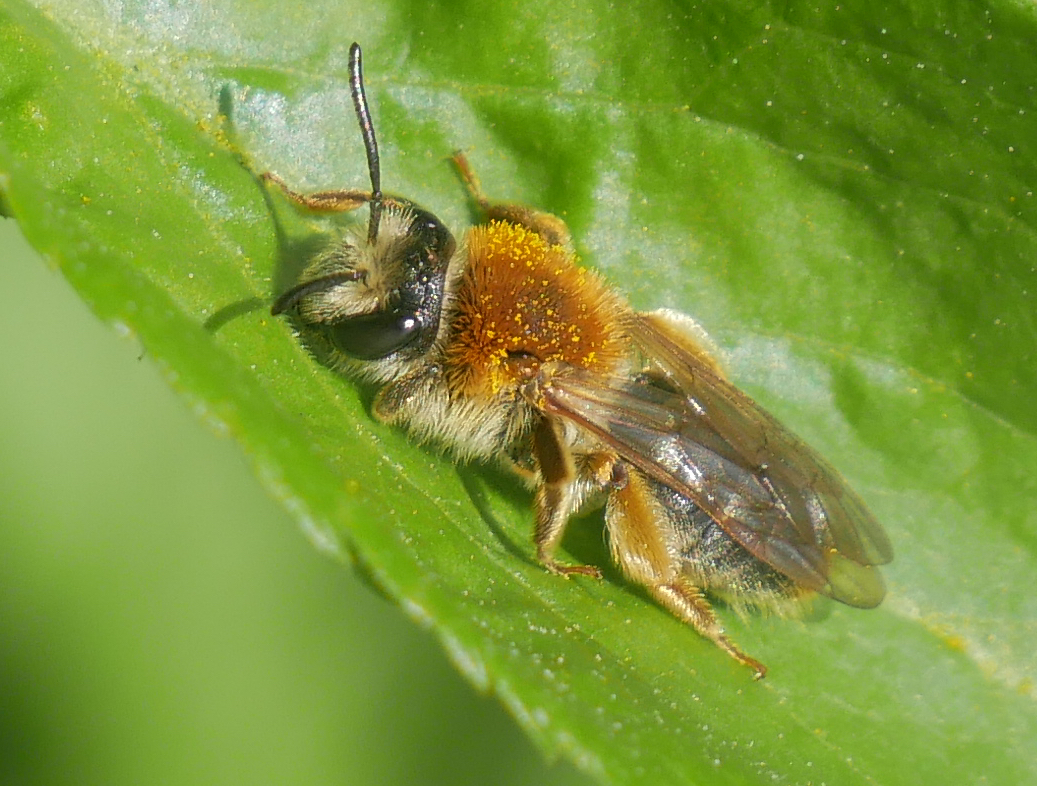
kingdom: Animalia
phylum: Arthropoda
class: Insecta
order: Hymenoptera
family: Andrenidae
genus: Andrena
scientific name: Andrena haemorrhoa
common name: Early mining bee
